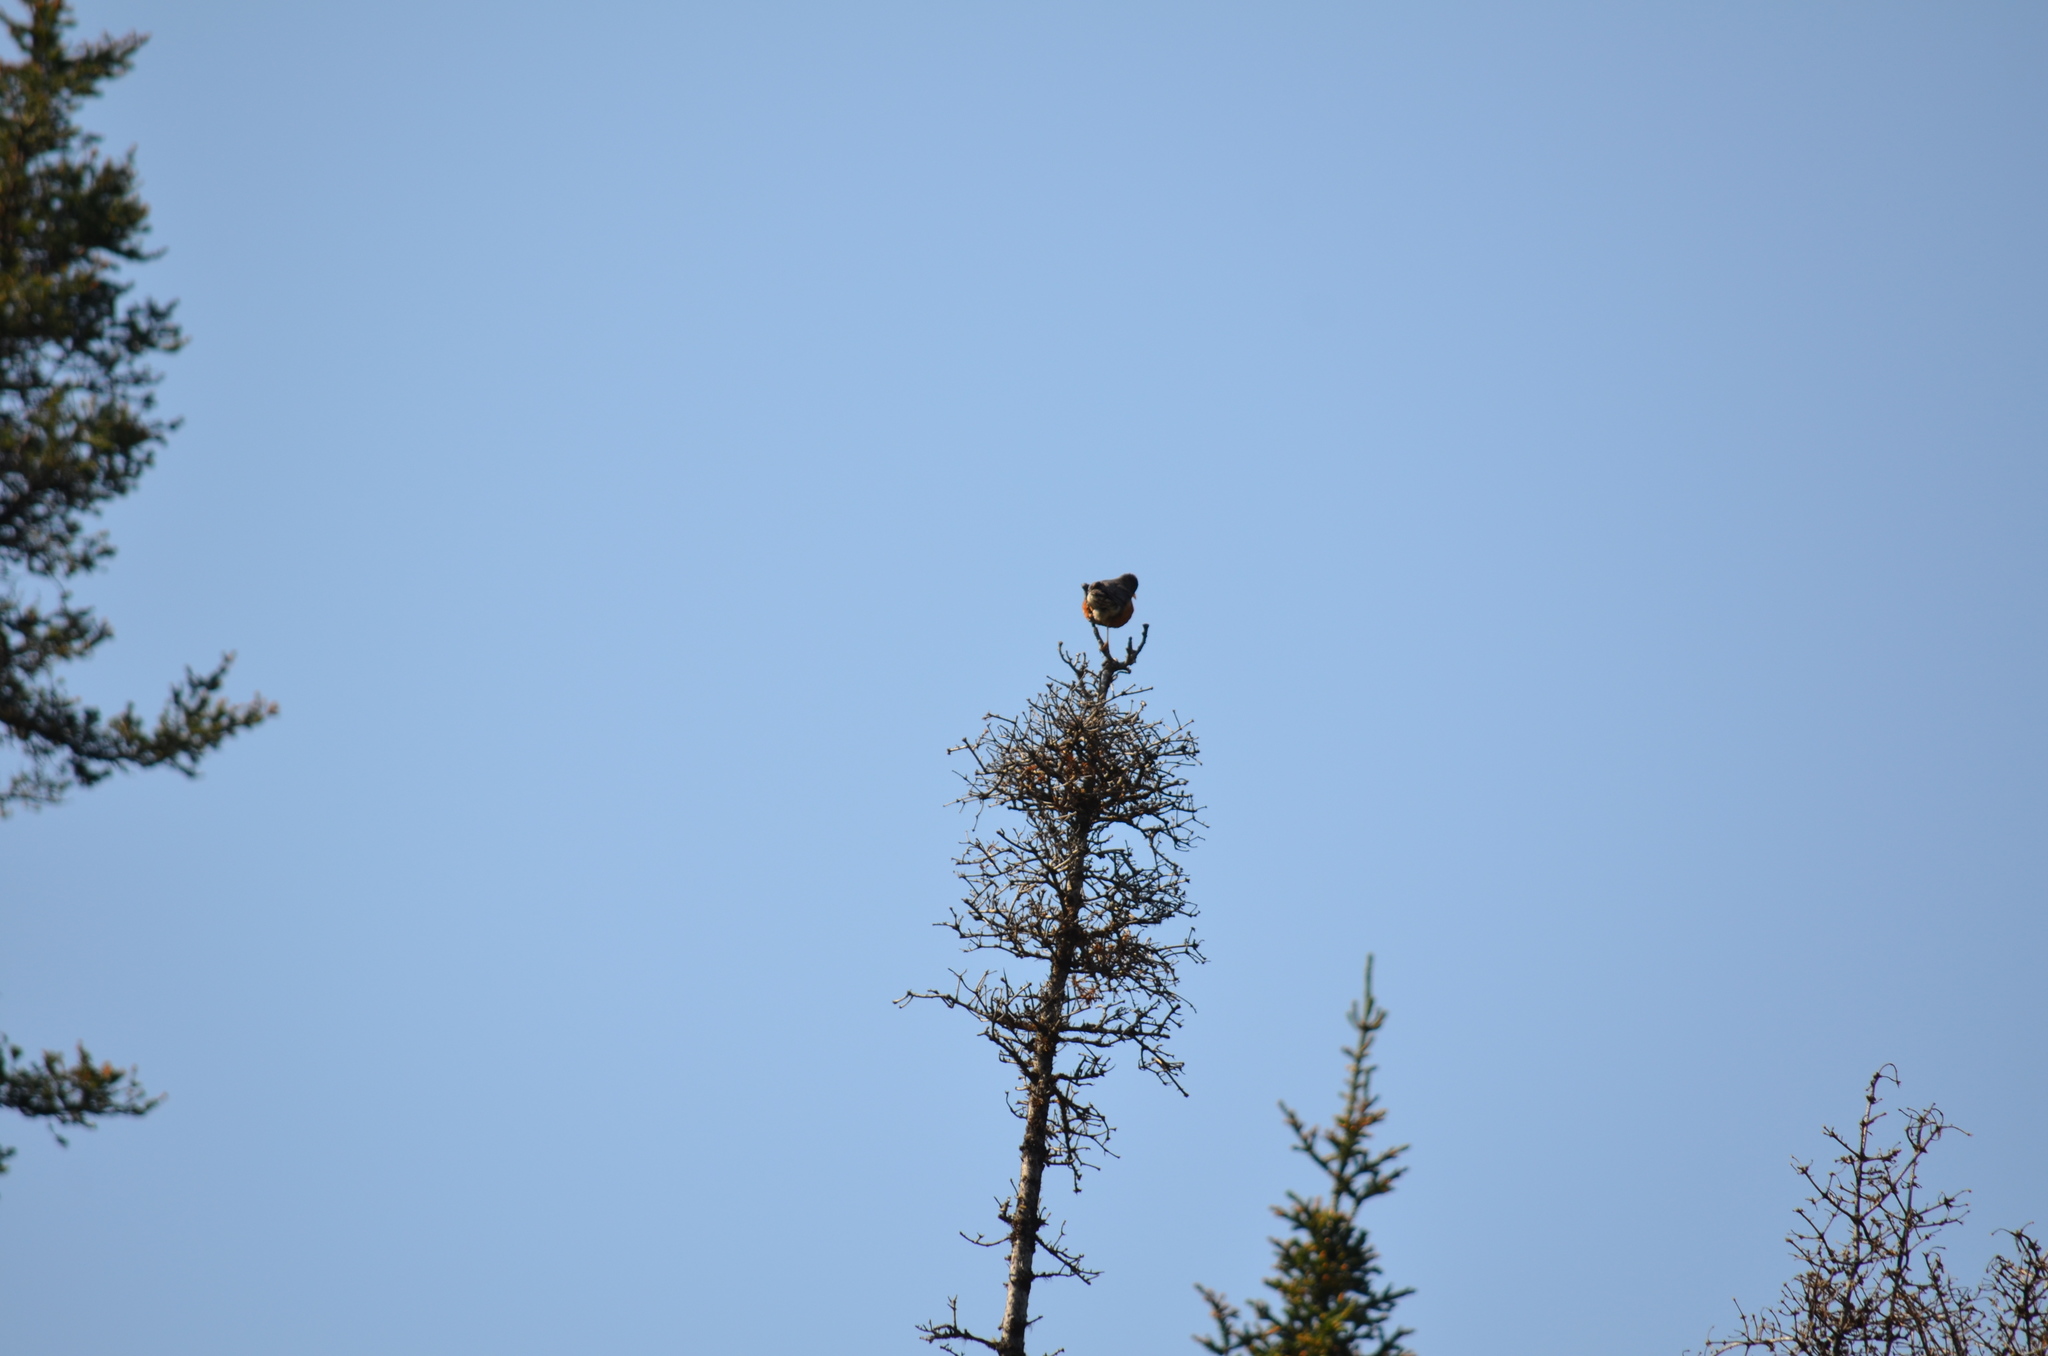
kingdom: Animalia
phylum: Chordata
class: Aves
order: Passeriformes
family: Turdidae
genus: Turdus
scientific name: Turdus migratorius
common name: American robin
